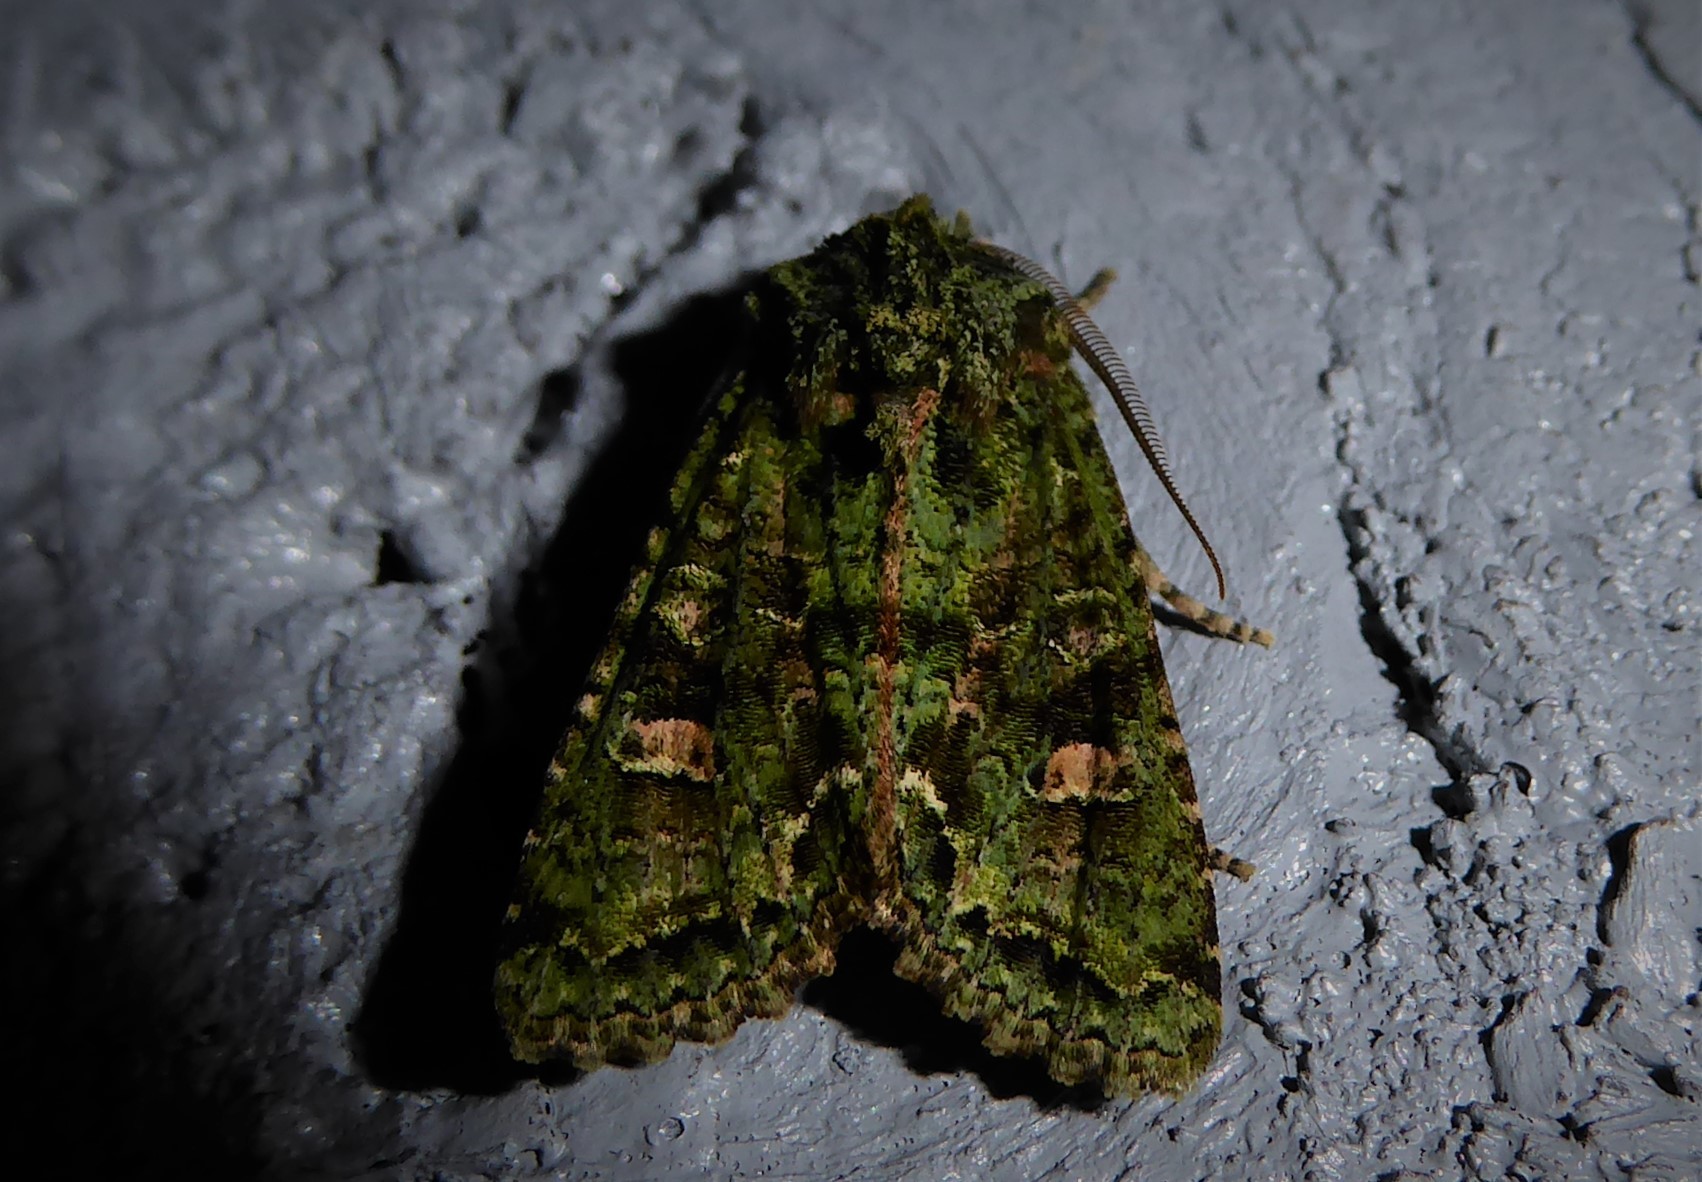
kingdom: Animalia
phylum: Arthropoda
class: Insecta
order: Lepidoptera
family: Noctuidae
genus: Ichneutica
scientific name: Ichneutica
